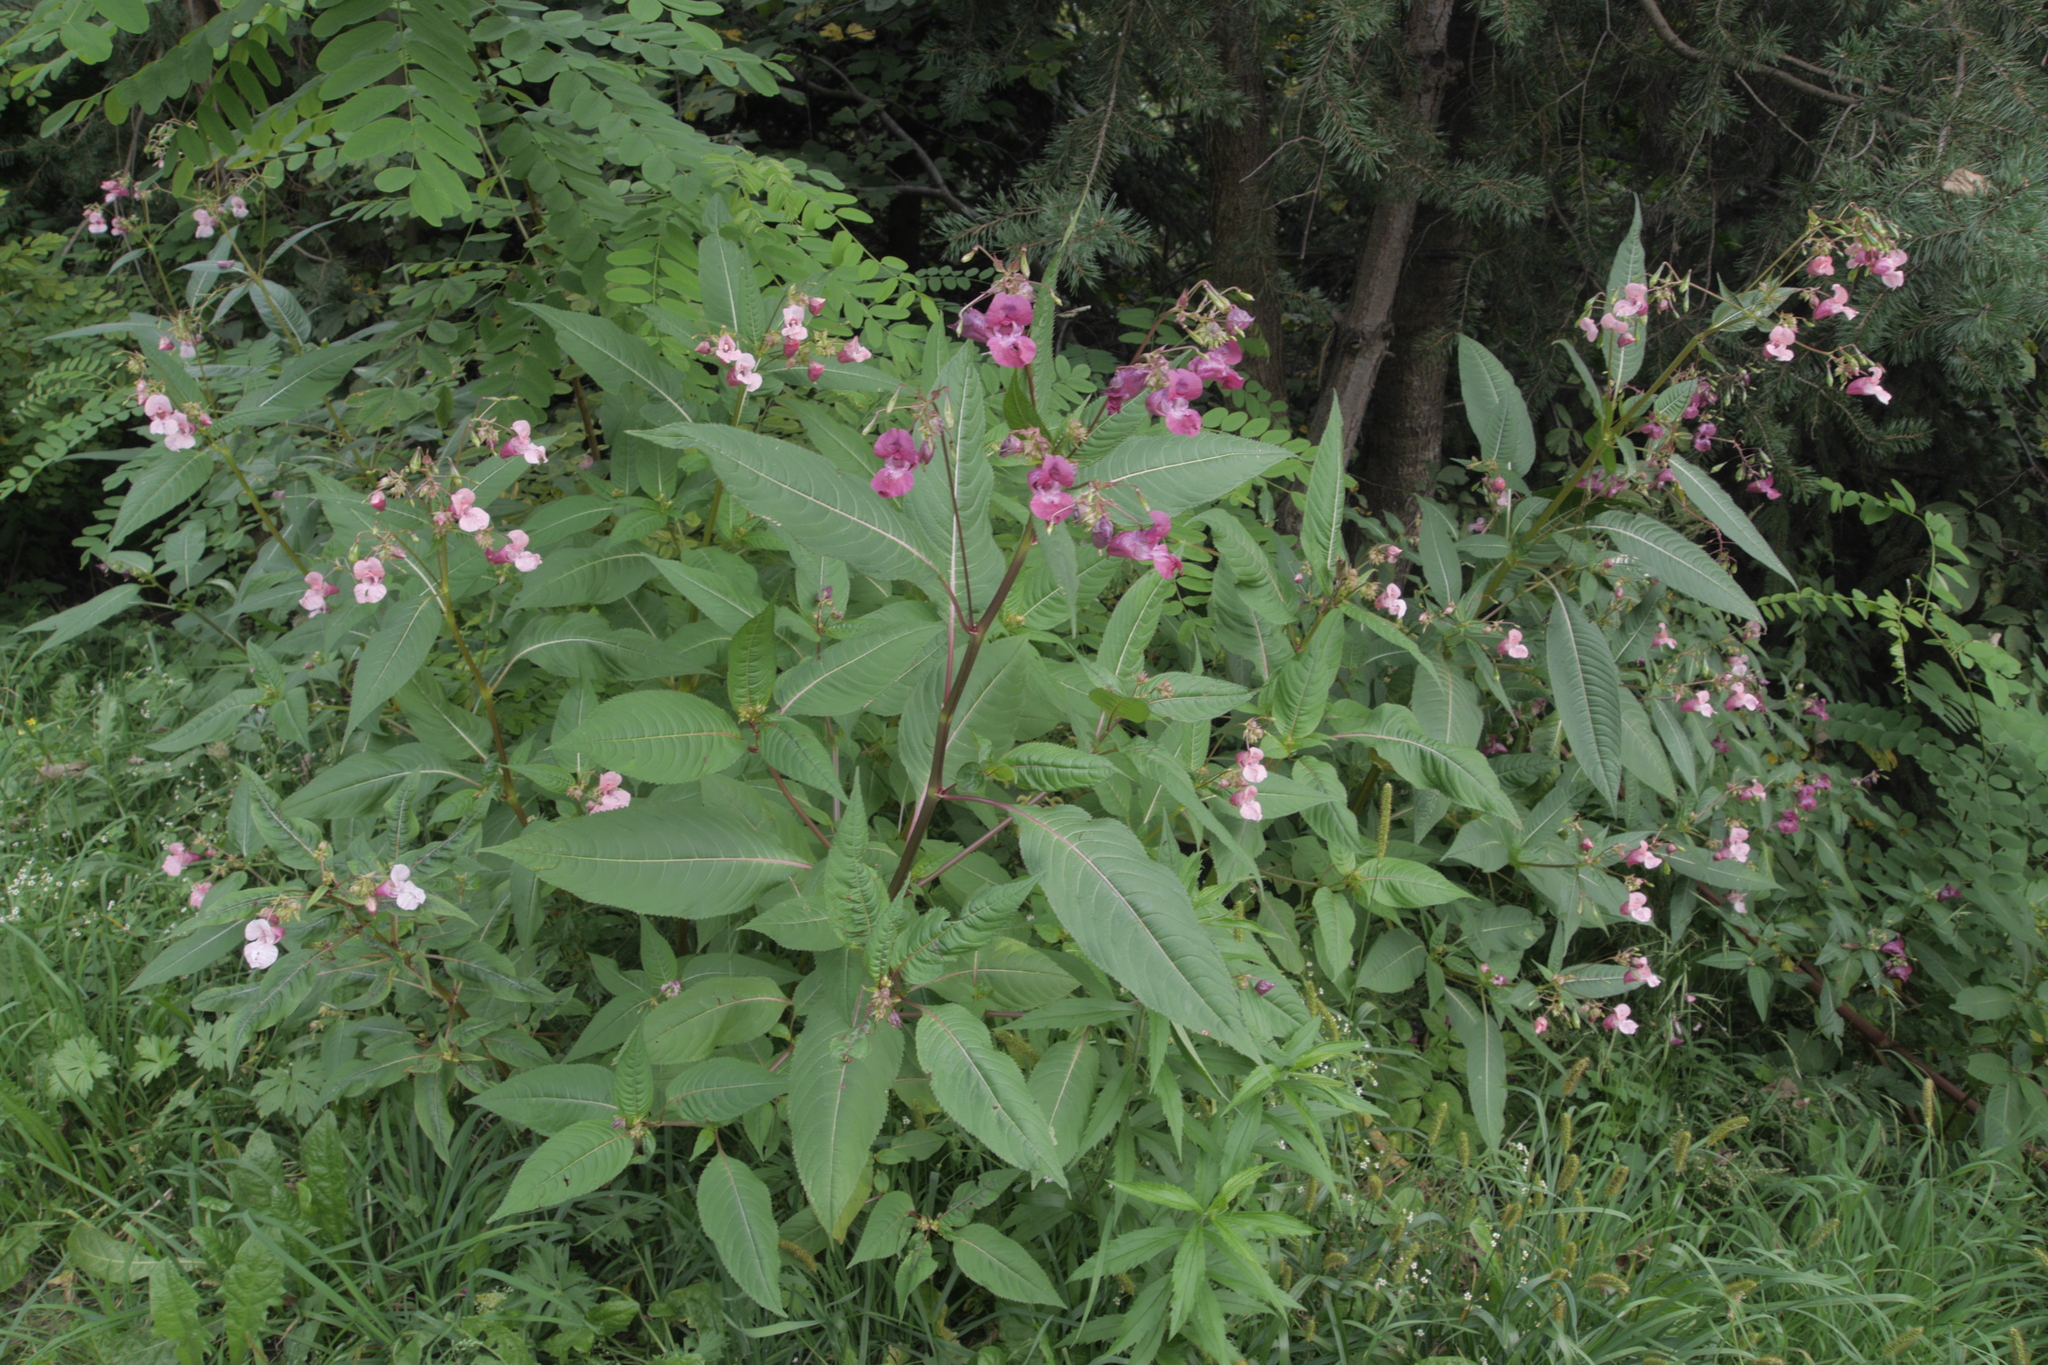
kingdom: Plantae
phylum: Tracheophyta
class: Magnoliopsida
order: Ericales
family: Balsaminaceae
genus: Impatiens
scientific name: Impatiens glandulifera
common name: Himalayan balsam
